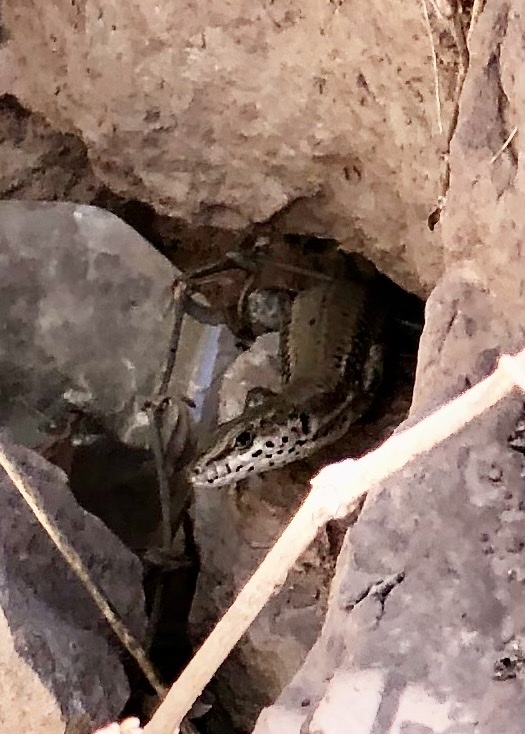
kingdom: Animalia
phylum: Chordata
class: Squamata
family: Lacertidae
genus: Podarcis
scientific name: Podarcis liolepis
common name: Catalonian wall lizard
